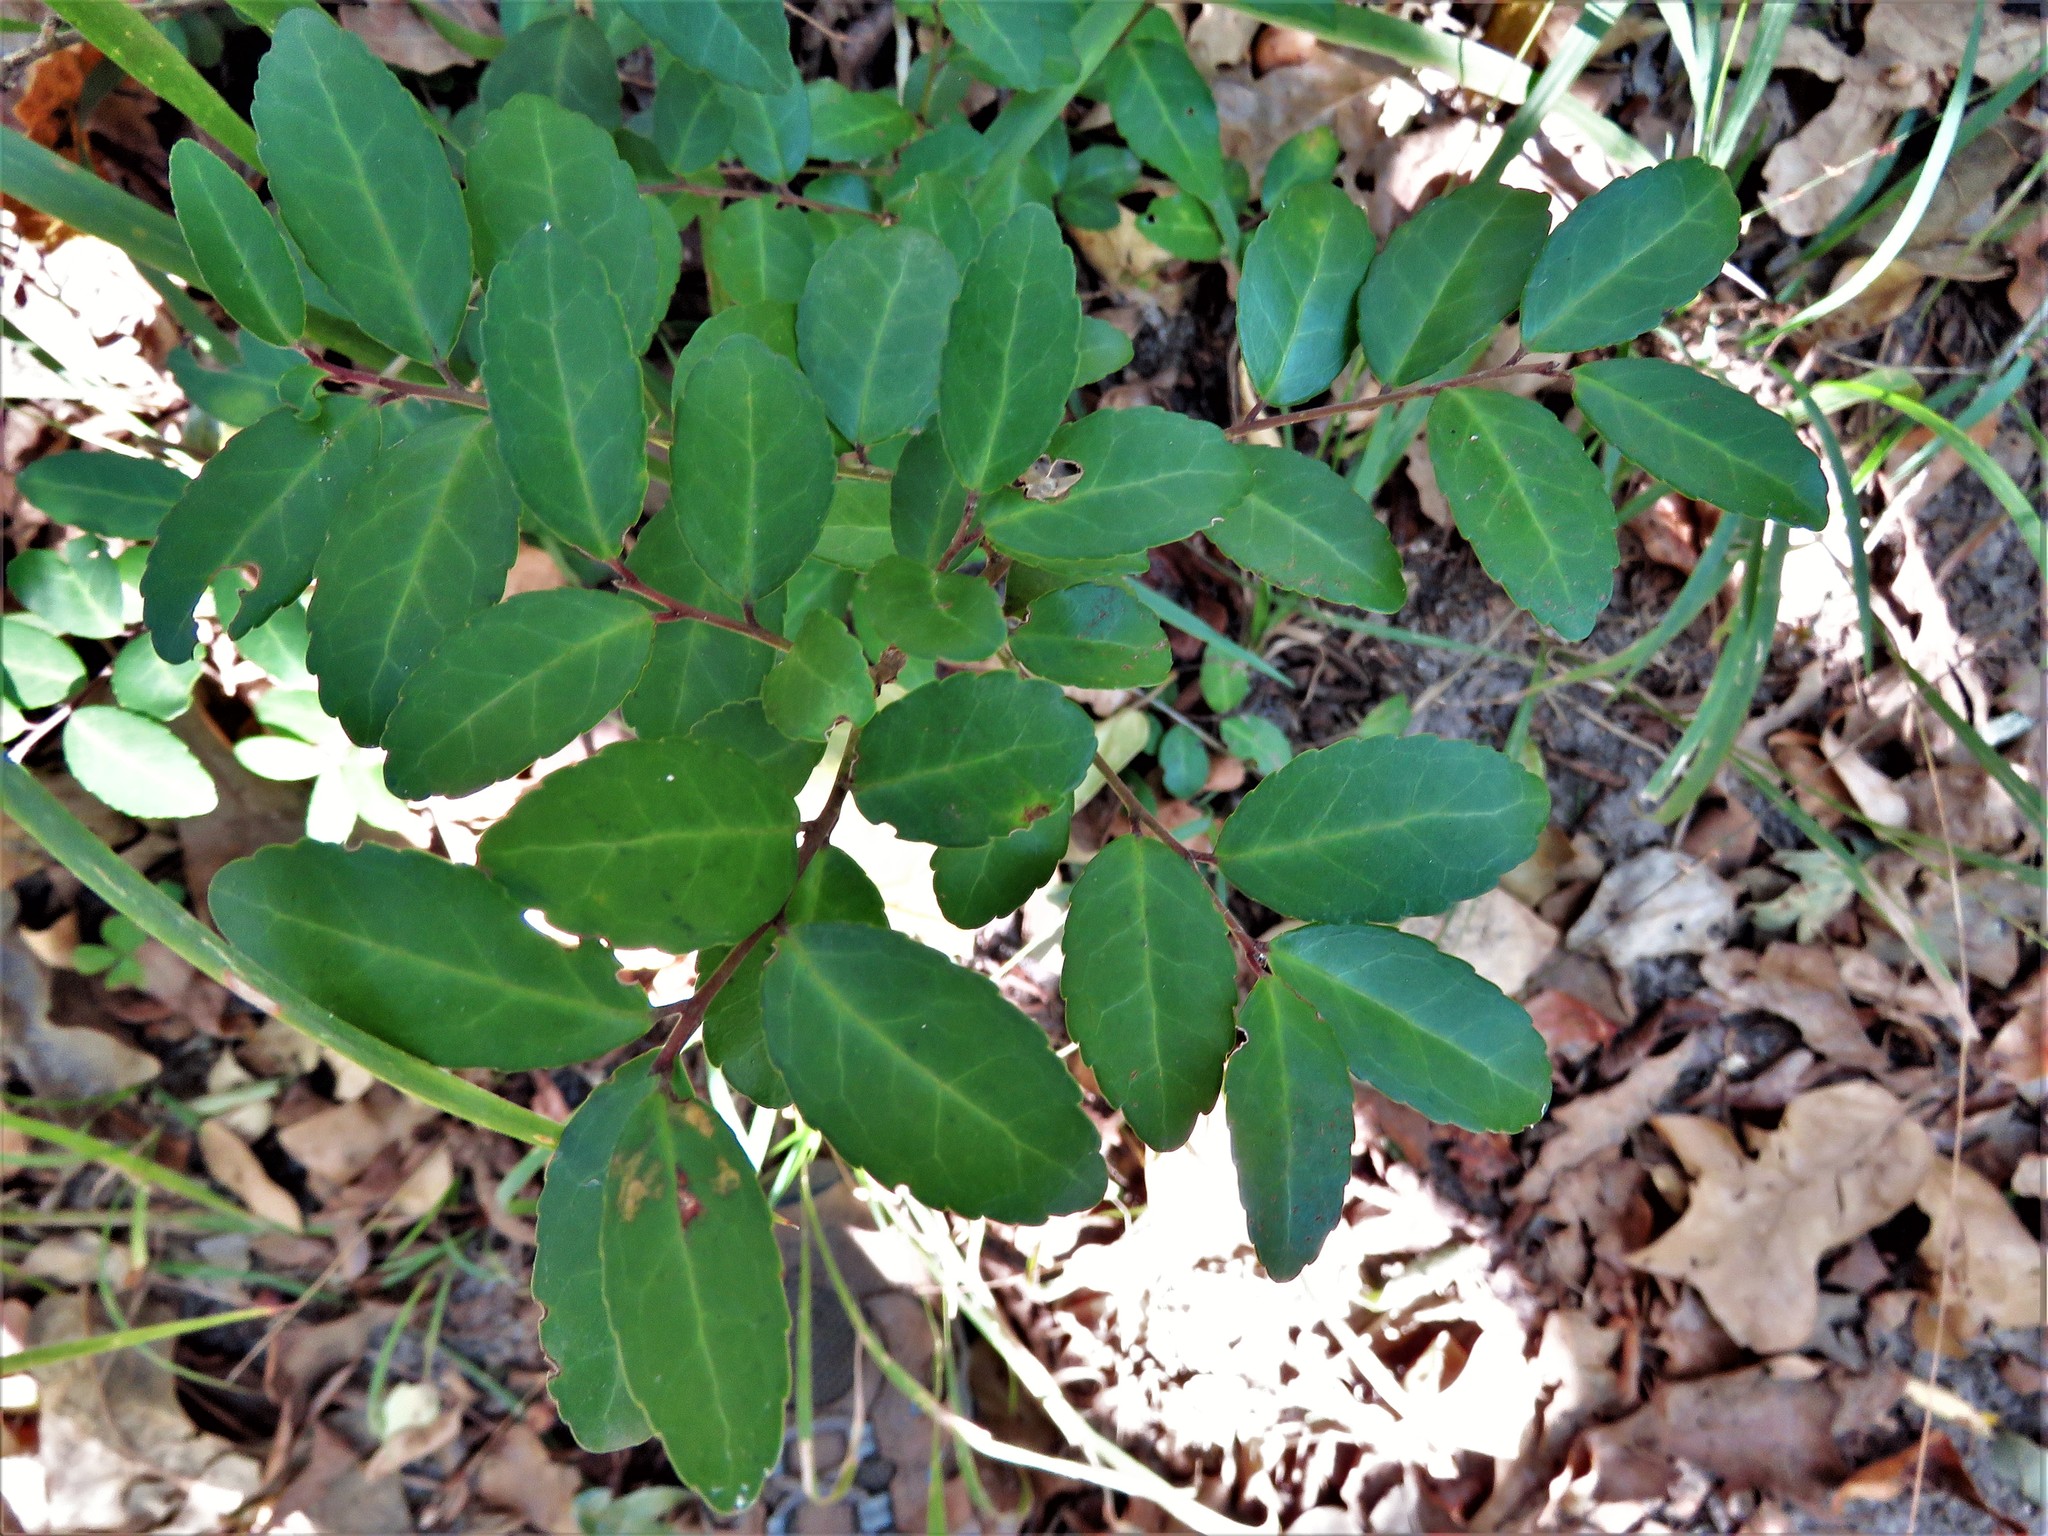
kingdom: Plantae
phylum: Tracheophyta
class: Magnoliopsida
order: Aquifoliales
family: Aquifoliaceae
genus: Ilex
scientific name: Ilex vomitoria
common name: Yaupon holly
